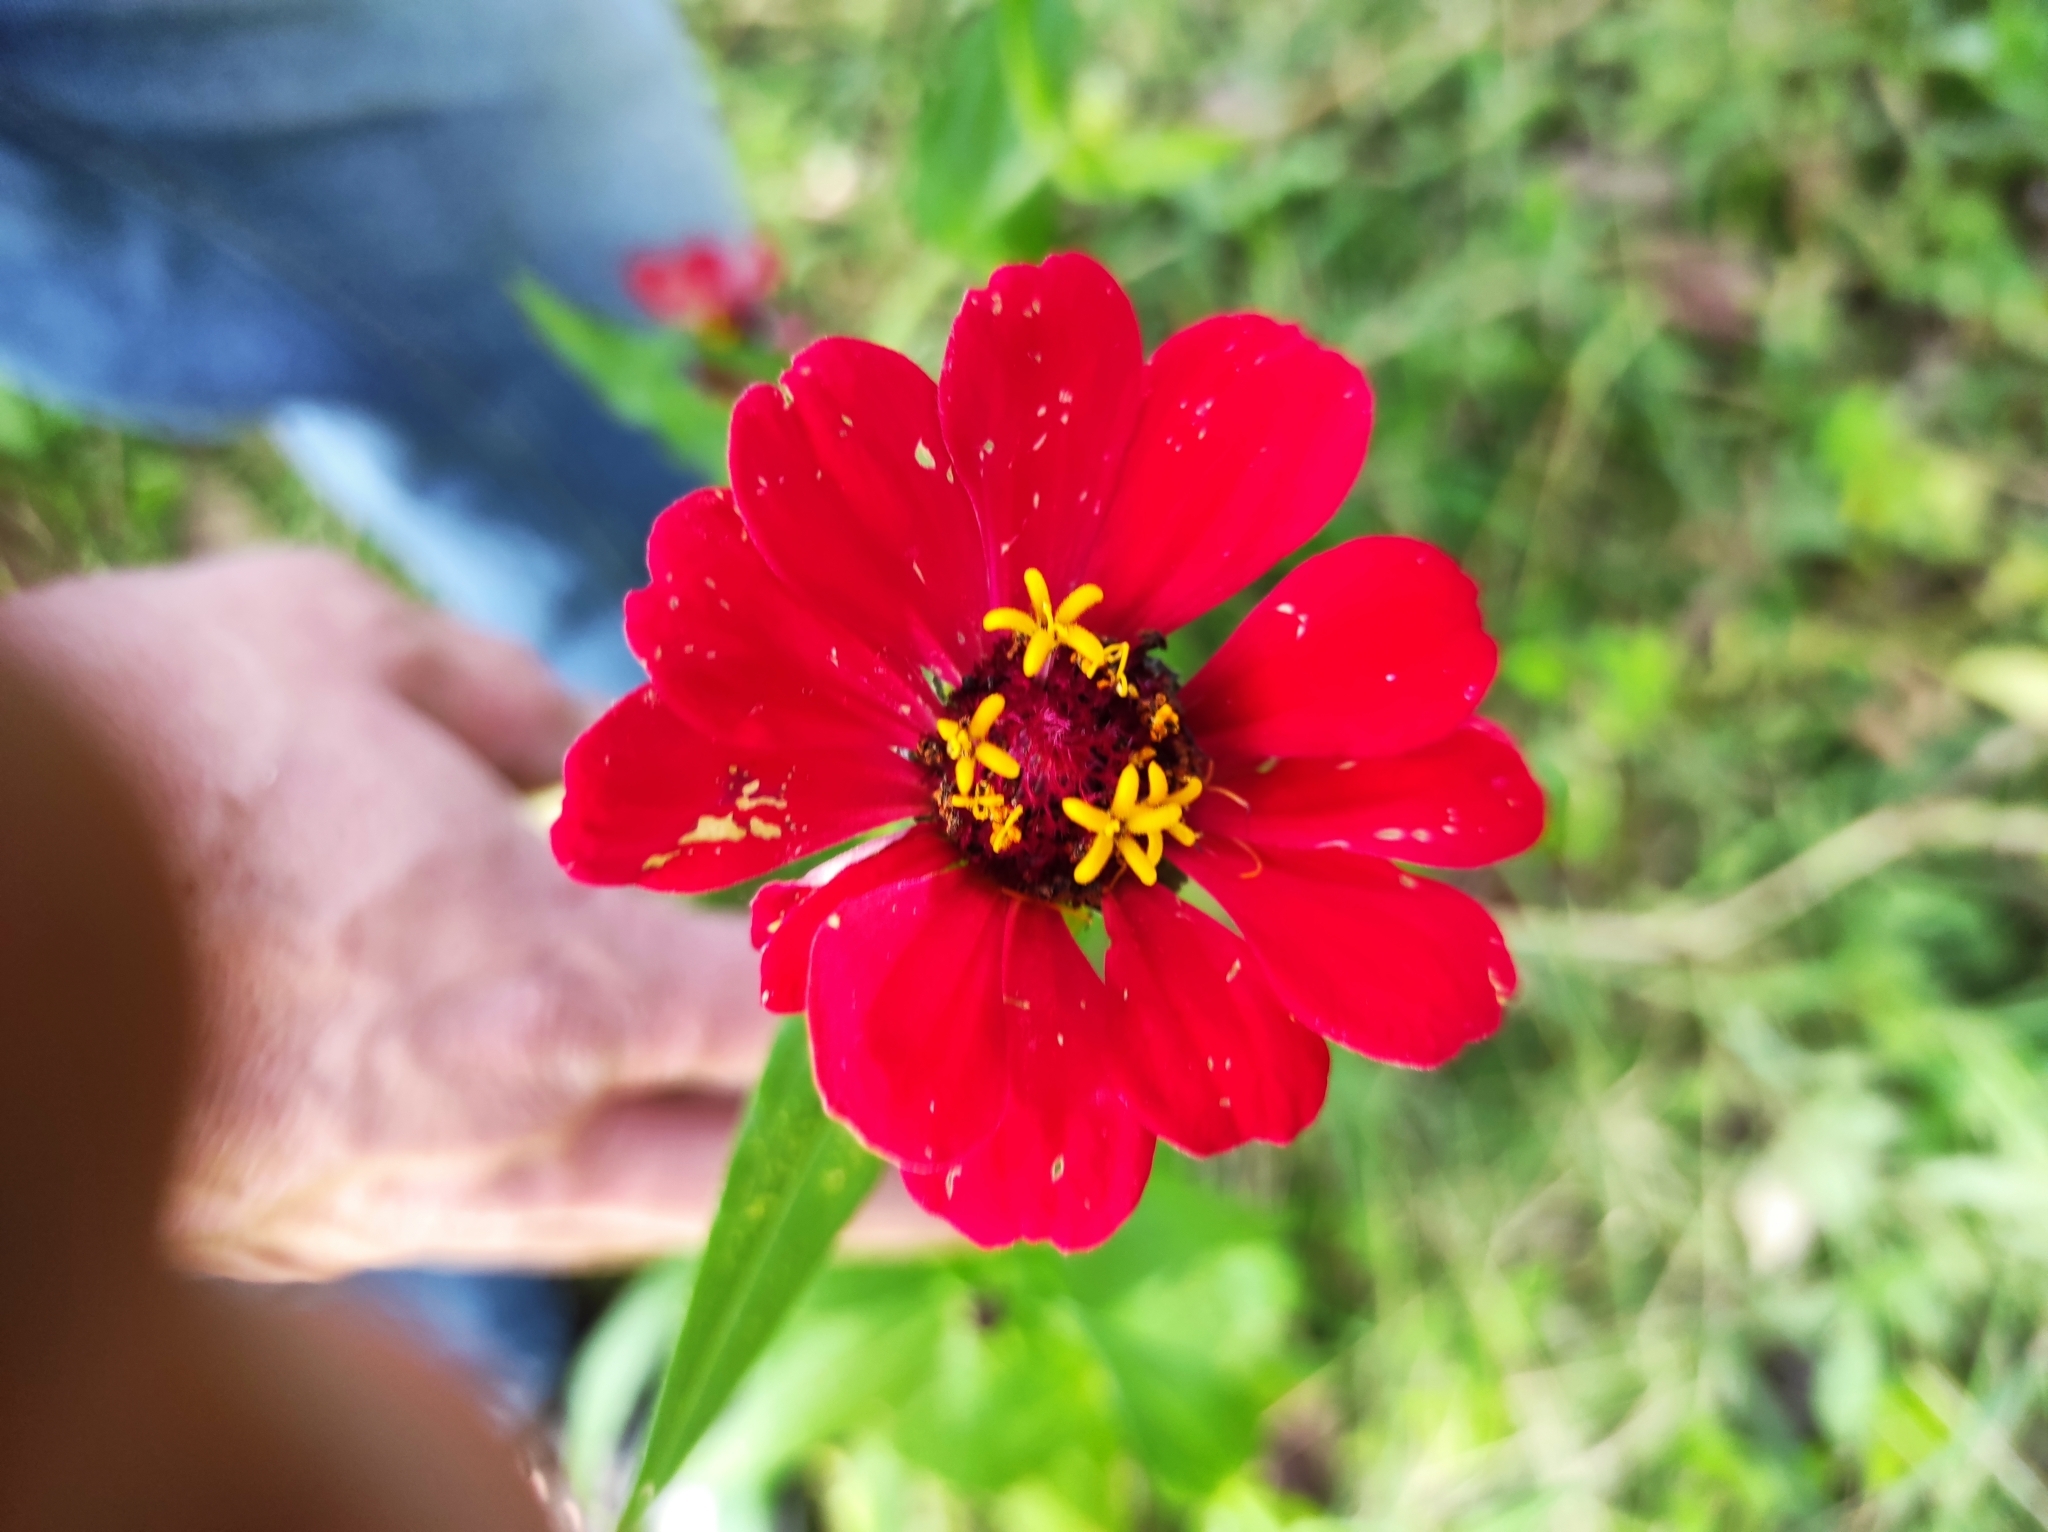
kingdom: Plantae
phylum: Tracheophyta
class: Magnoliopsida
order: Asterales
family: Asteraceae
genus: Zinnia
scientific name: Zinnia elegans
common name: Youth-and-age
